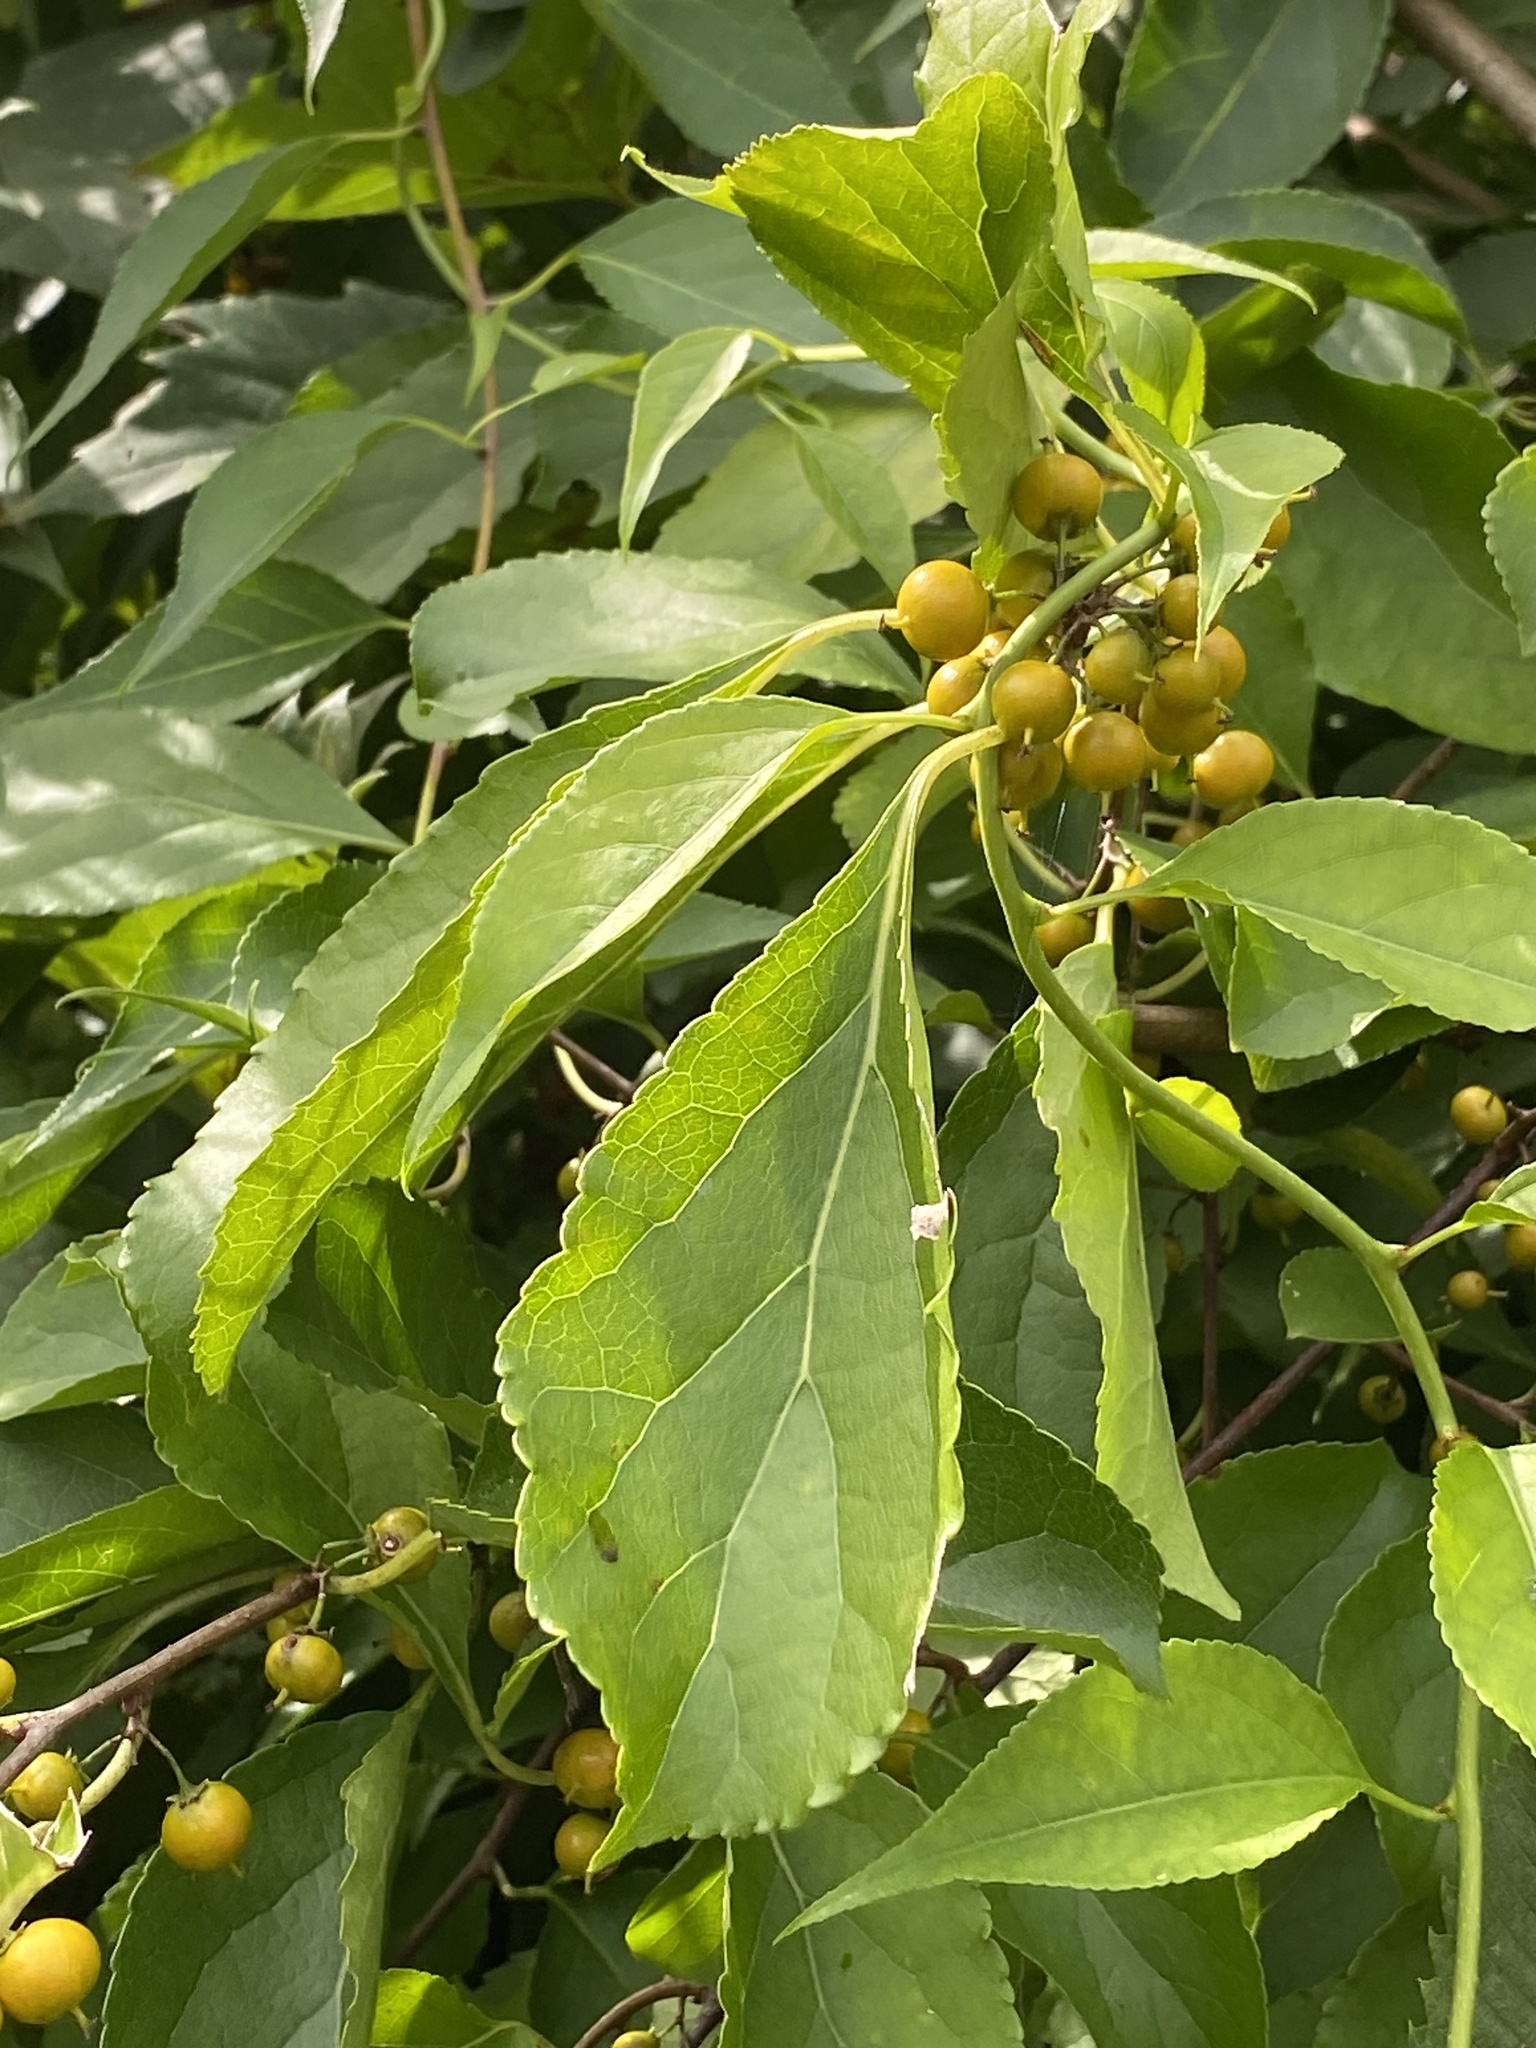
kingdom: Plantae
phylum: Tracheophyta
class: Magnoliopsida
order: Celastrales
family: Celastraceae
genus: Celastrus
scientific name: Celastrus orbiculatus
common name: Oriental bittersweet
